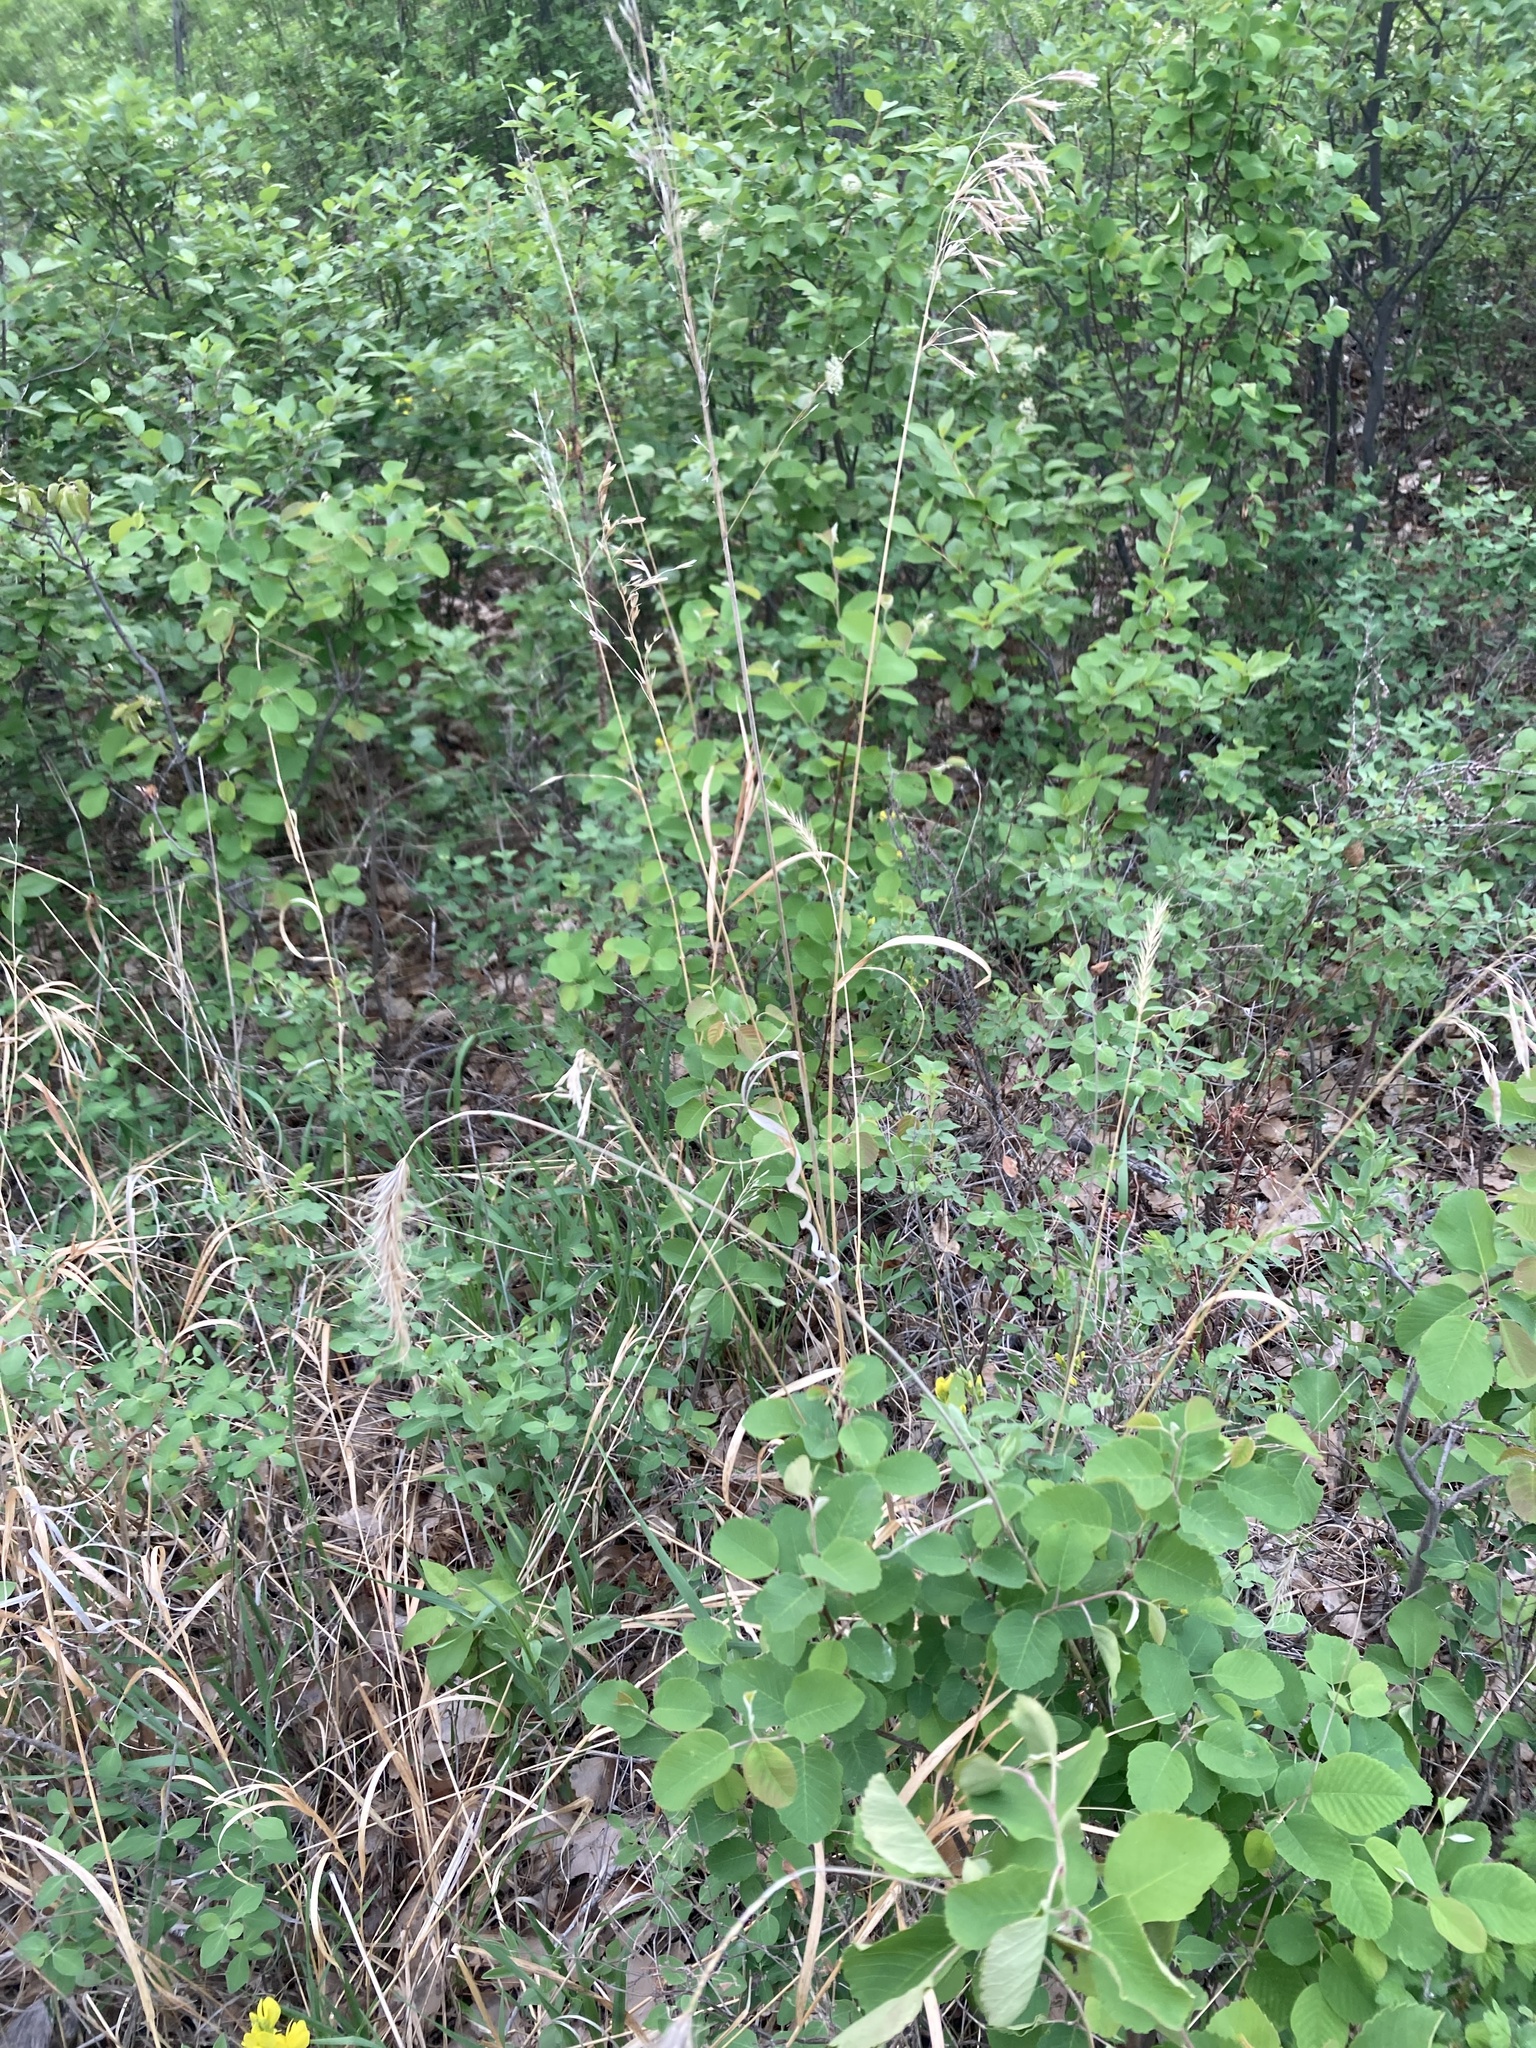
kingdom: Plantae
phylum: Tracheophyta
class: Liliopsida
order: Poales
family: Poaceae
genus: Elymus
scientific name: Elymus canadensis
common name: Canada wild rye
